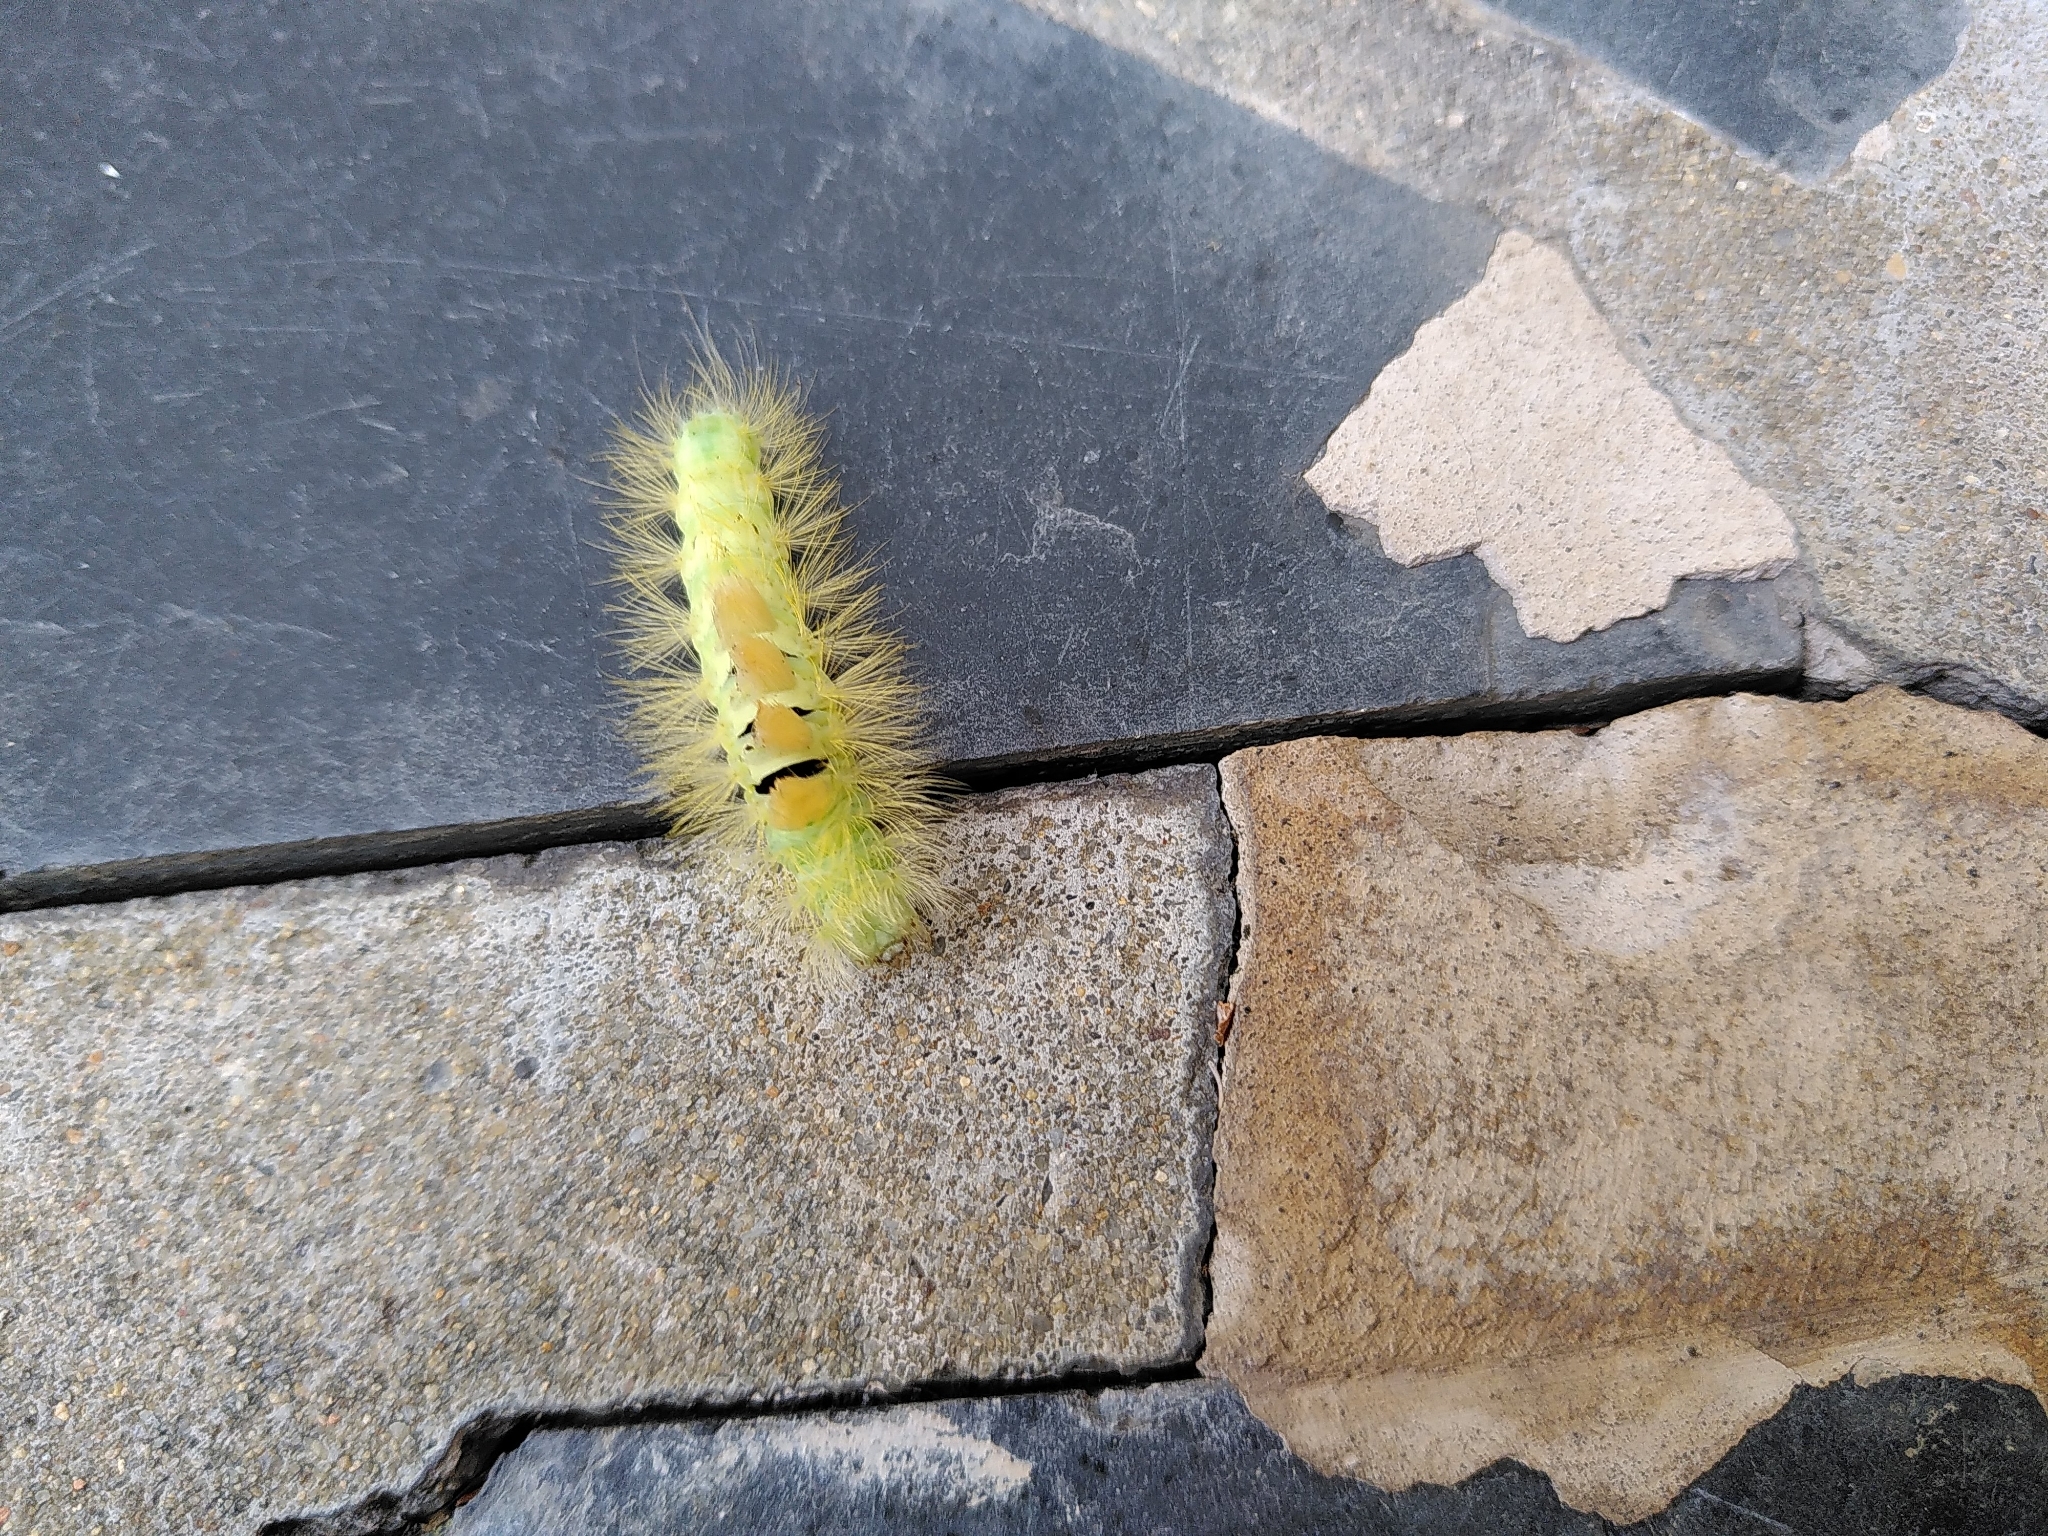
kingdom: Animalia
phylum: Arthropoda
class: Insecta
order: Lepidoptera
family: Erebidae
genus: Calliteara
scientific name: Calliteara pudibunda
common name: Pale tussock
